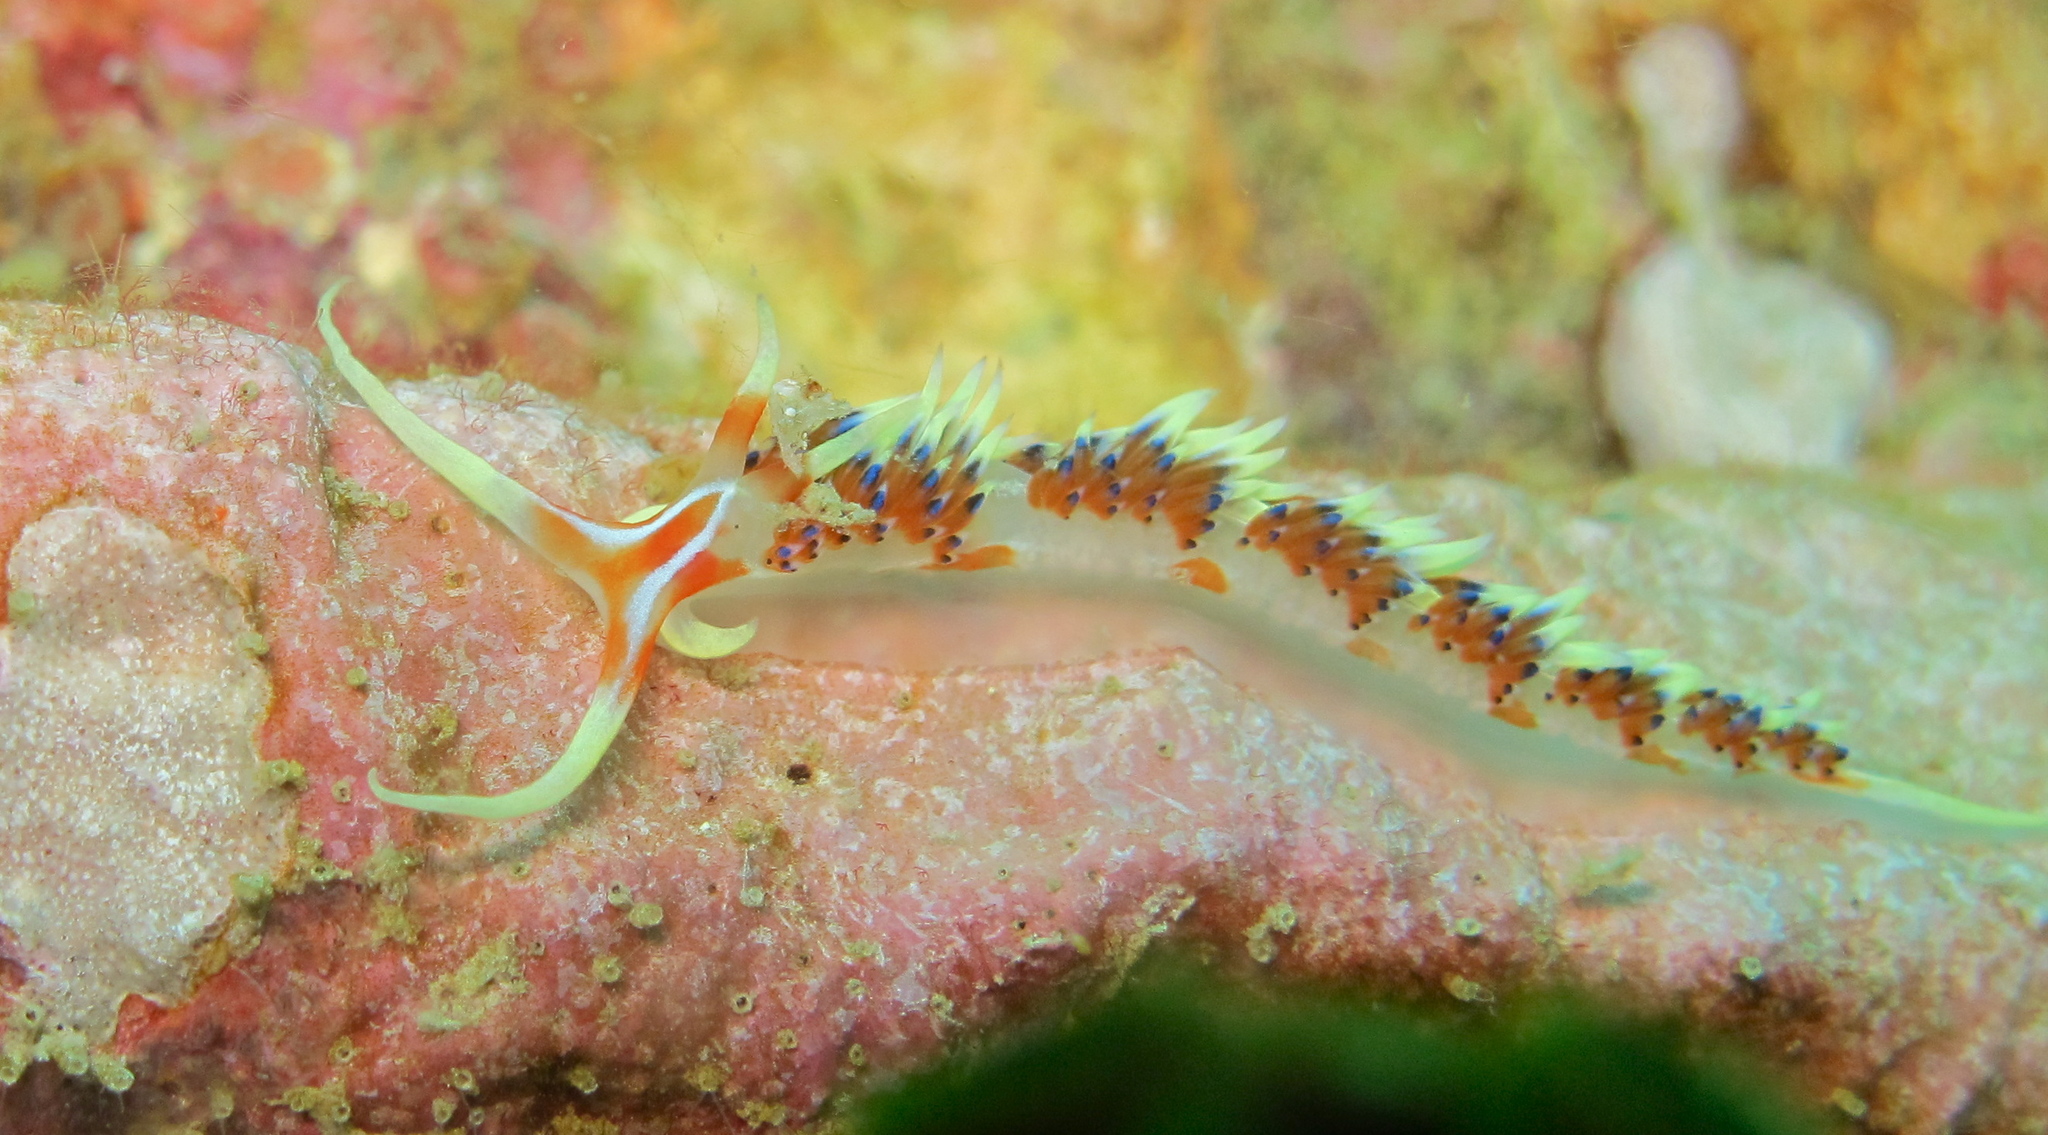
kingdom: Animalia
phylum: Mollusca
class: Gastropoda
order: Nudibranchia
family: Facelinidae
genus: Caloria
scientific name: Caloria indica
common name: Sea slug
